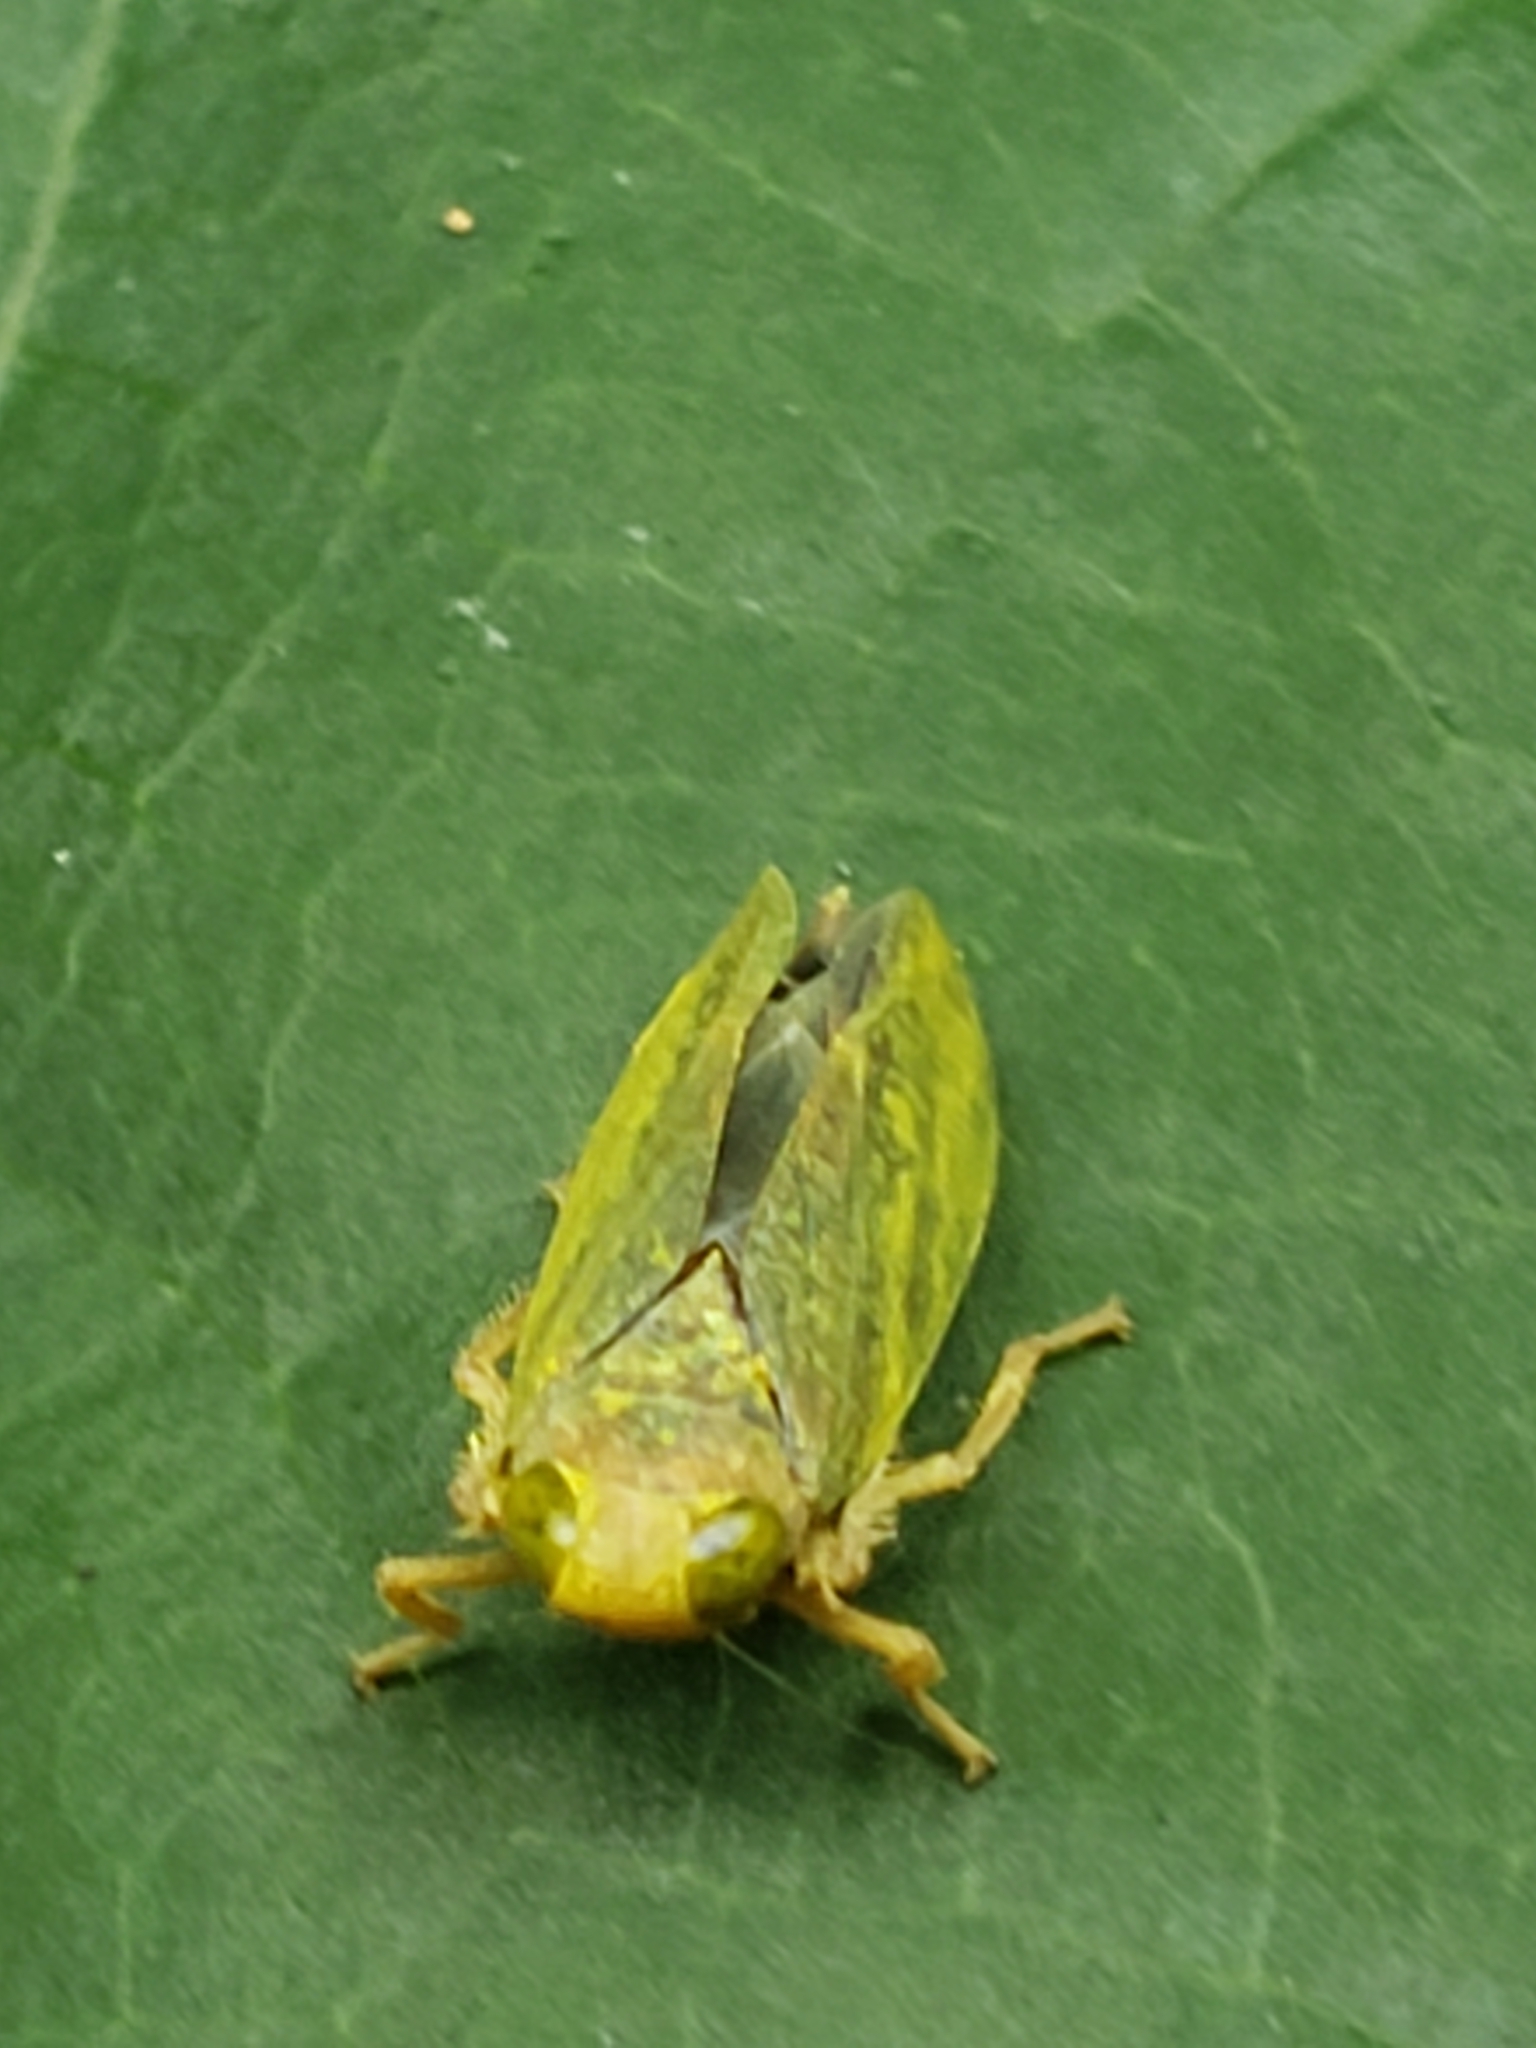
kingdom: Animalia
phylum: Arthropoda
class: Insecta
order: Hemiptera
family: Cicadellidae
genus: Jikradia
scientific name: Jikradia olitoria
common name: Coppery leafhopper
